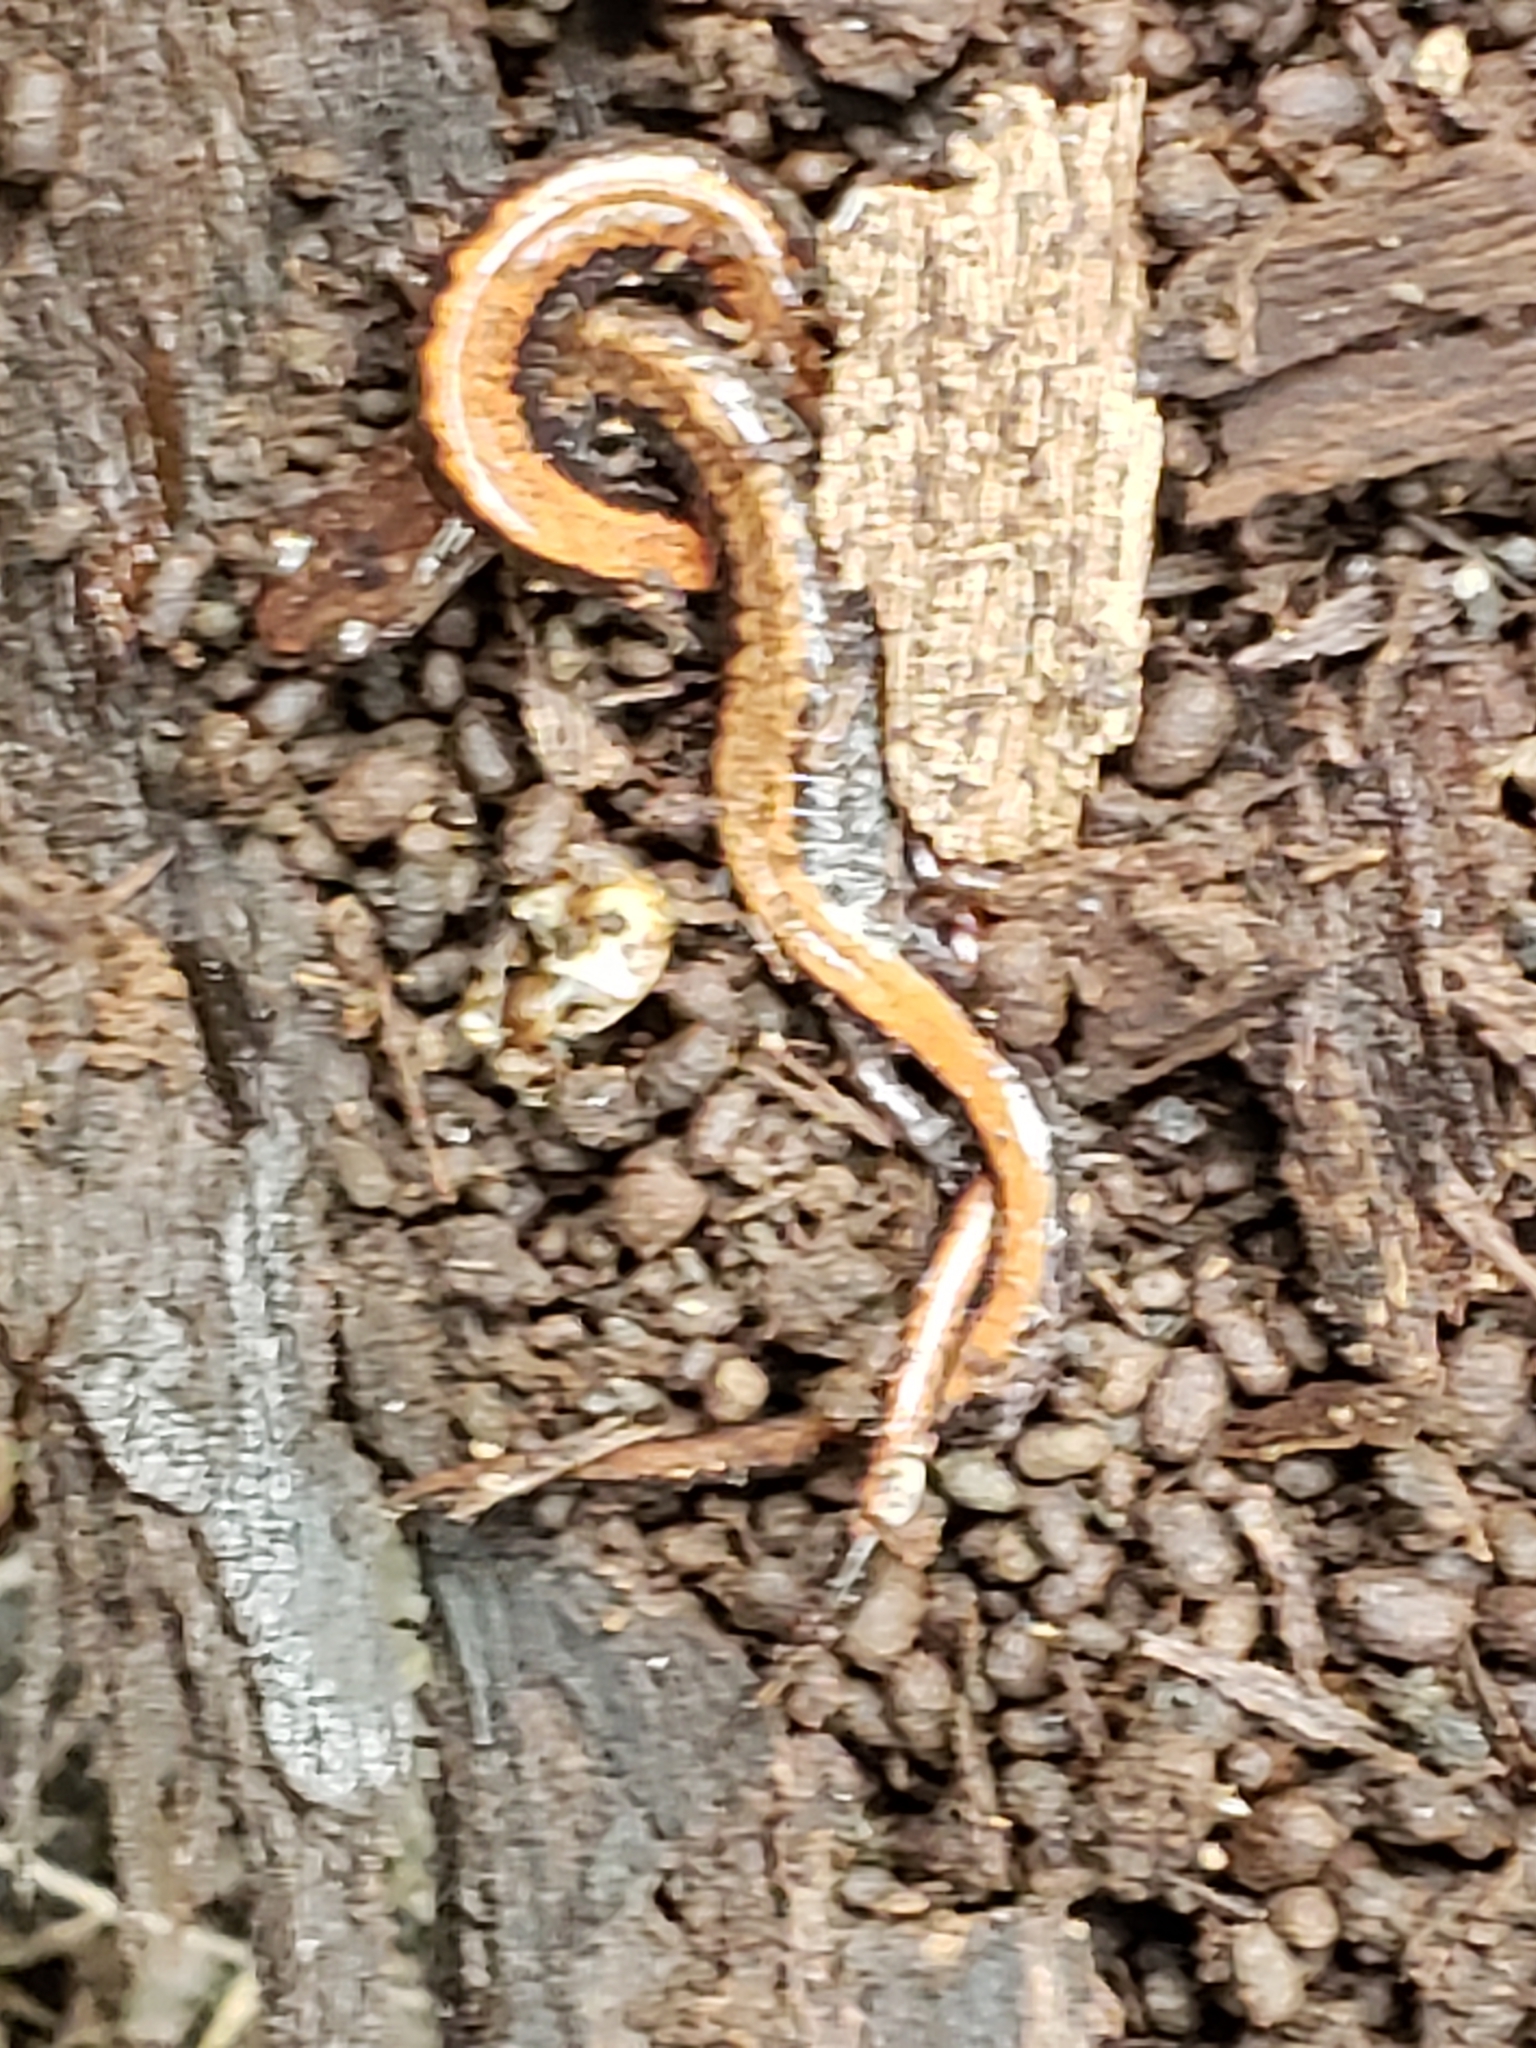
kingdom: Animalia
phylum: Chordata
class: Amphibia
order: Caudata
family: Plethodontidae
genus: Plethodon
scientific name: Plethodon cinereus
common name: Redback salamander
